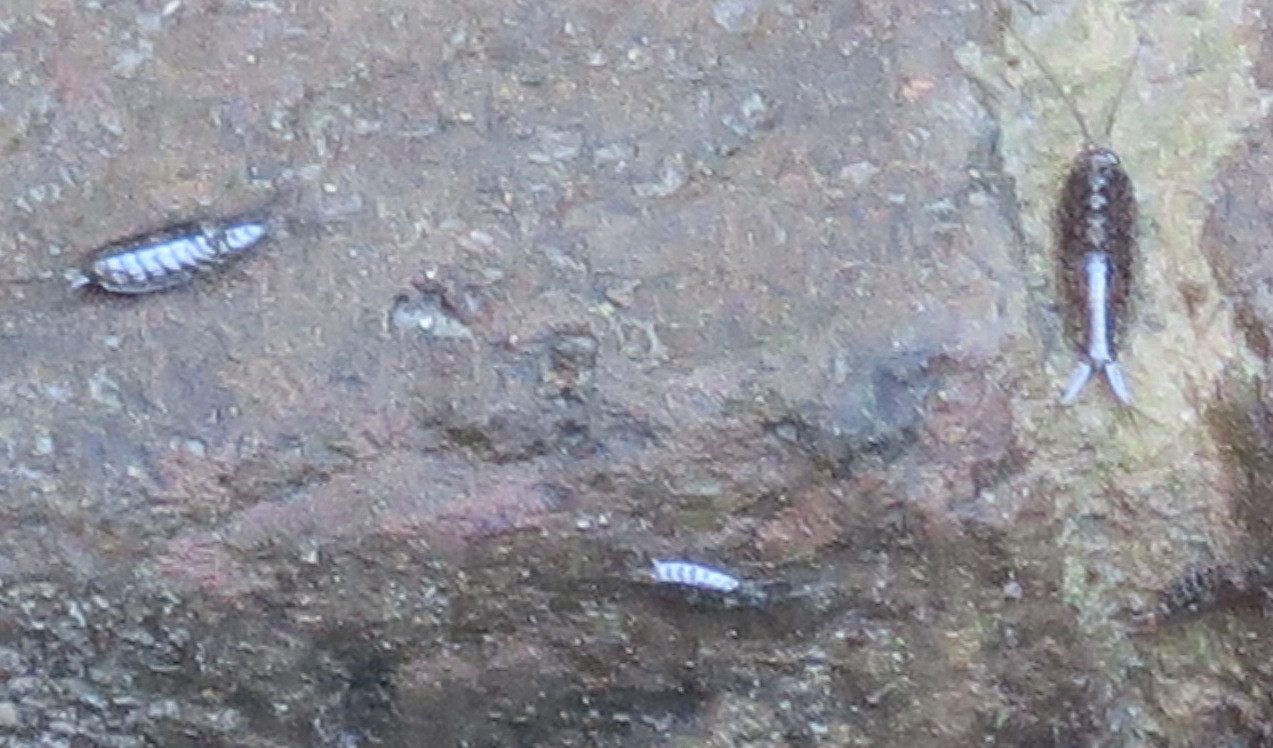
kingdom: Animalia
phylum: Arthropoda
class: Malacostraca
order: Isopoda
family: Ligiidae
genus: Ligia
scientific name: Ligia exotica
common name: Wharf roach
